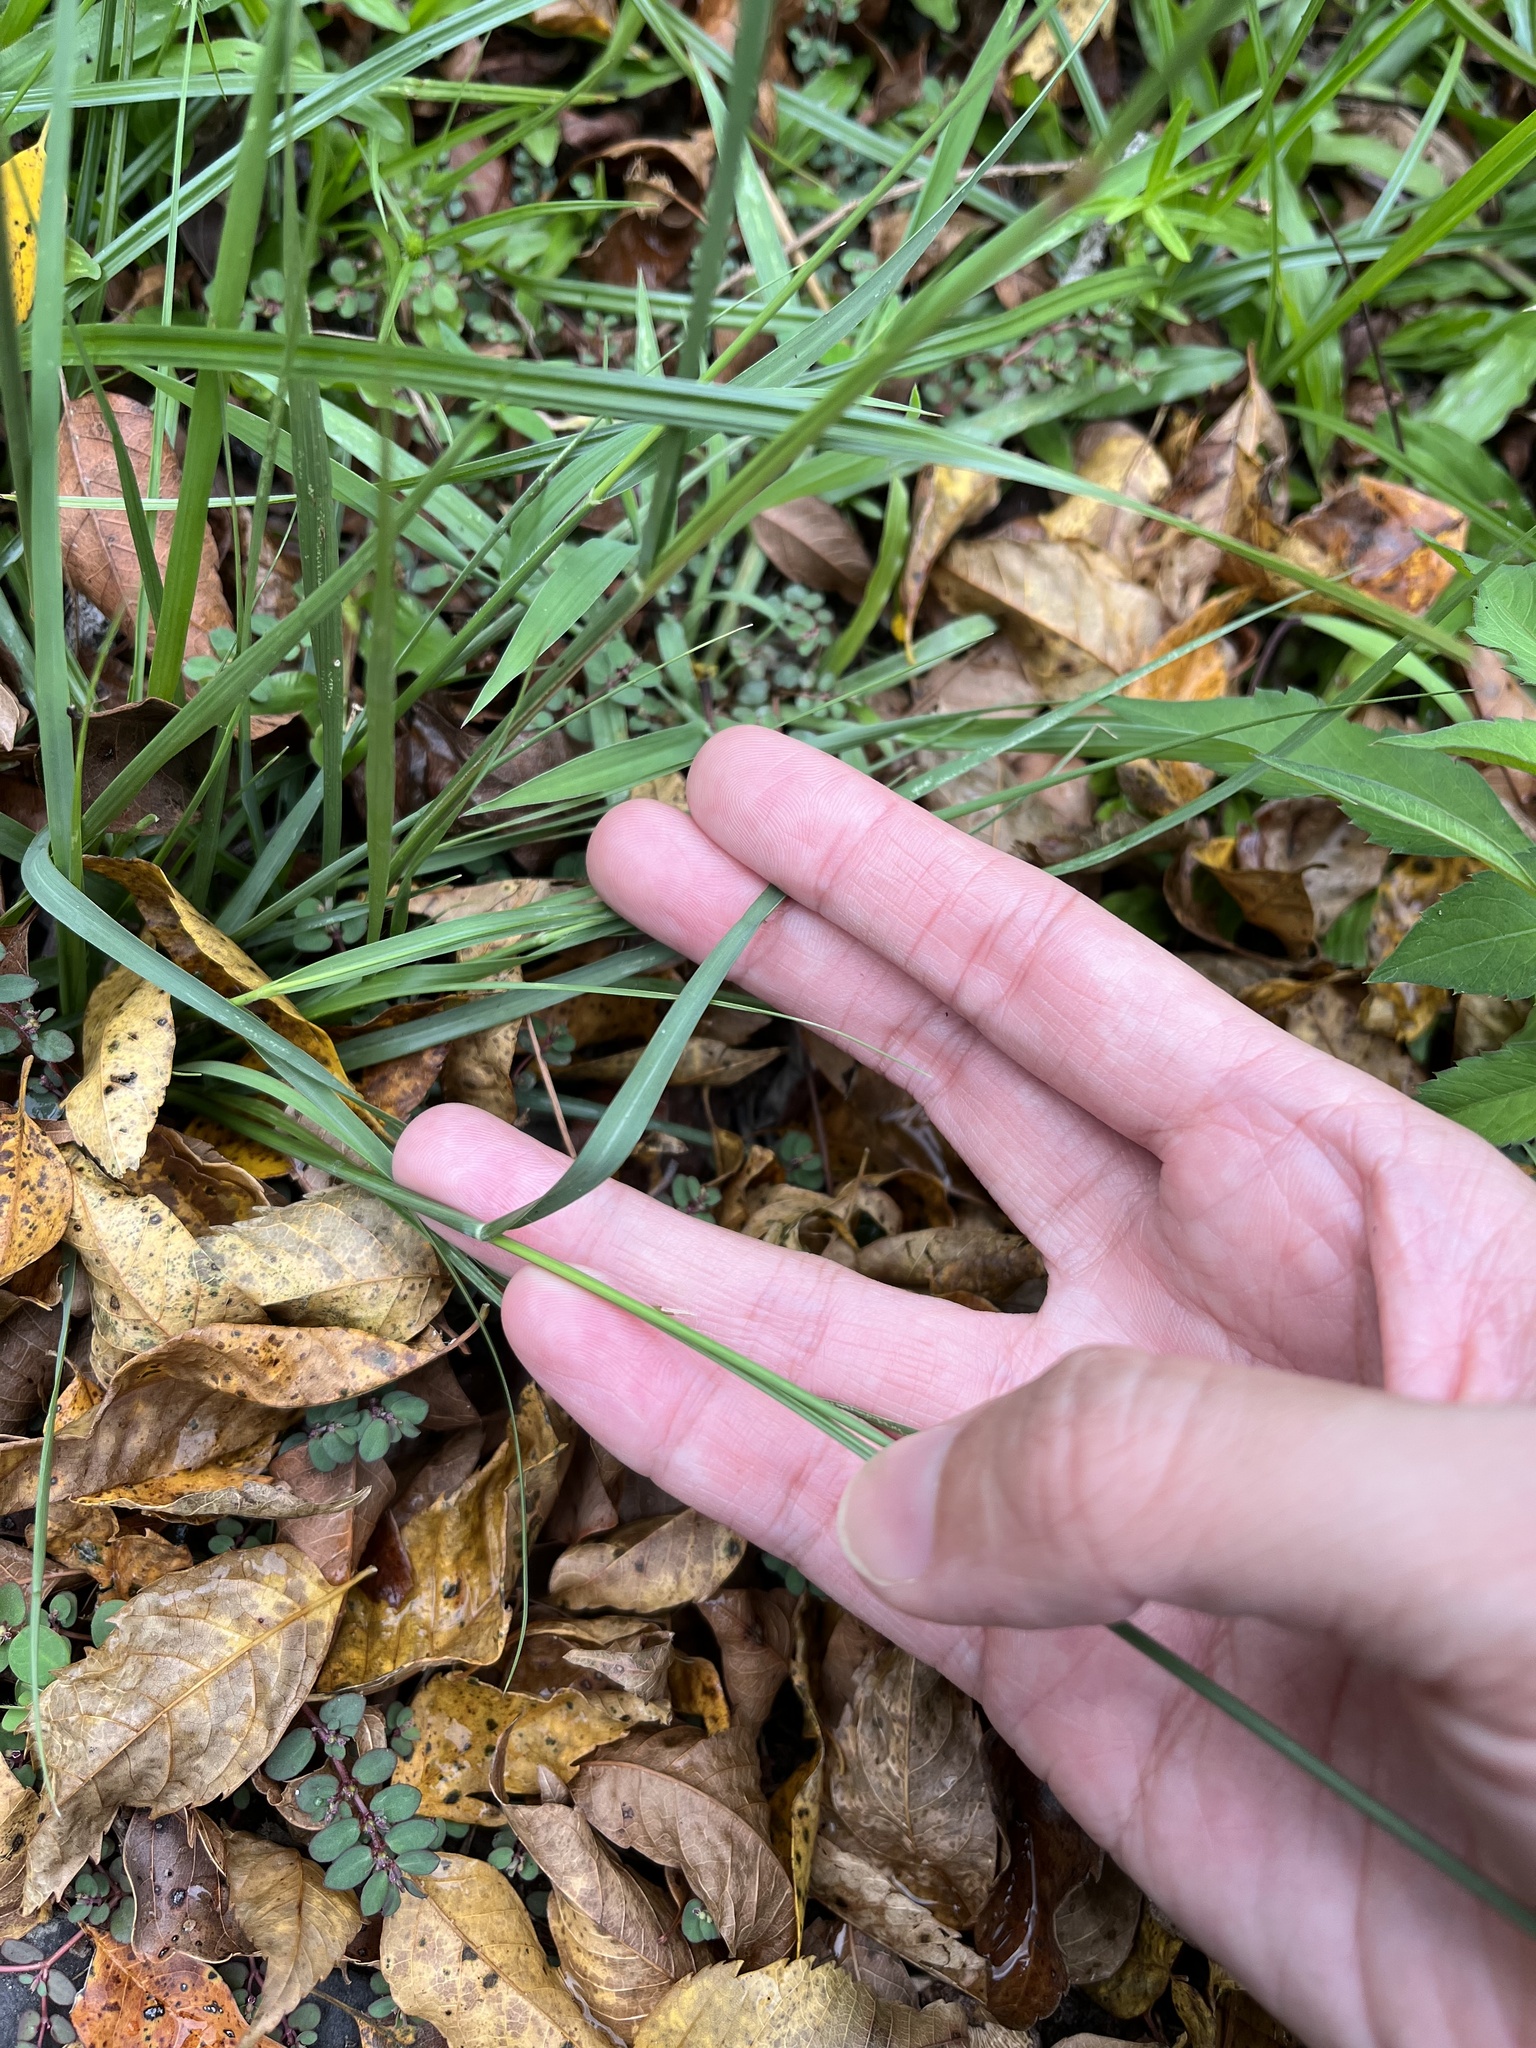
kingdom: Plantae
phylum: Tracheophyta
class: Liliopsida
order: Poales
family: Poaceae
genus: Sporobolus
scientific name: Sporobolus indicus
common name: Smut grass
